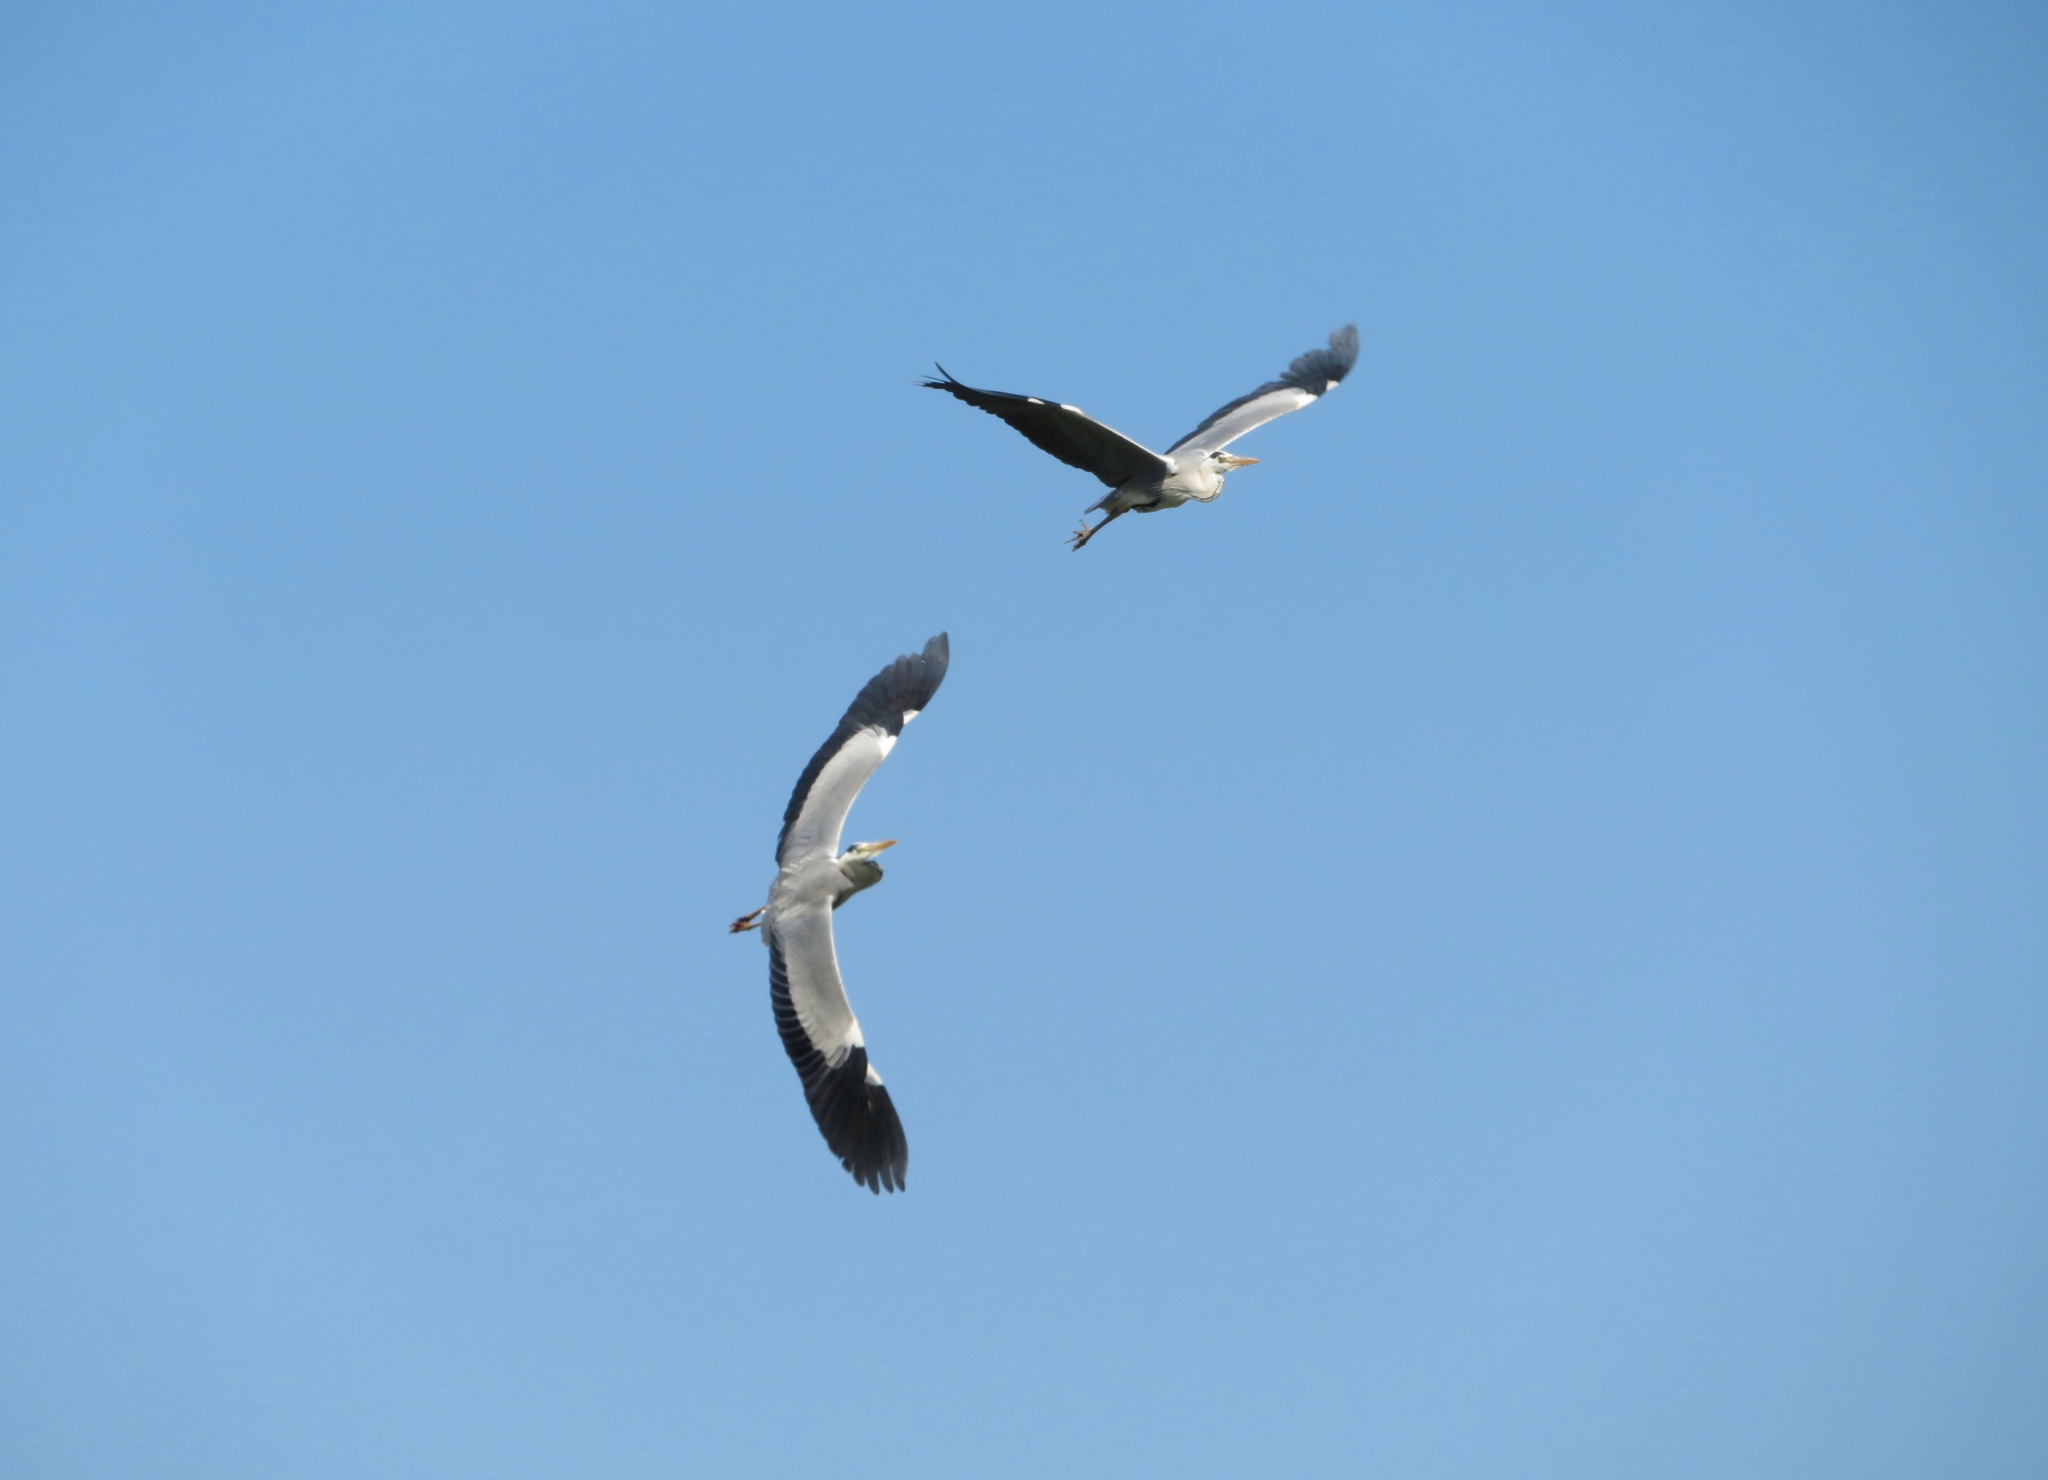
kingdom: Animalia
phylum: Chordata
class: Aves
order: Pelecaniformes
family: Ardeidae
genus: Ardea
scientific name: Ardea cinerea
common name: Grey heron
